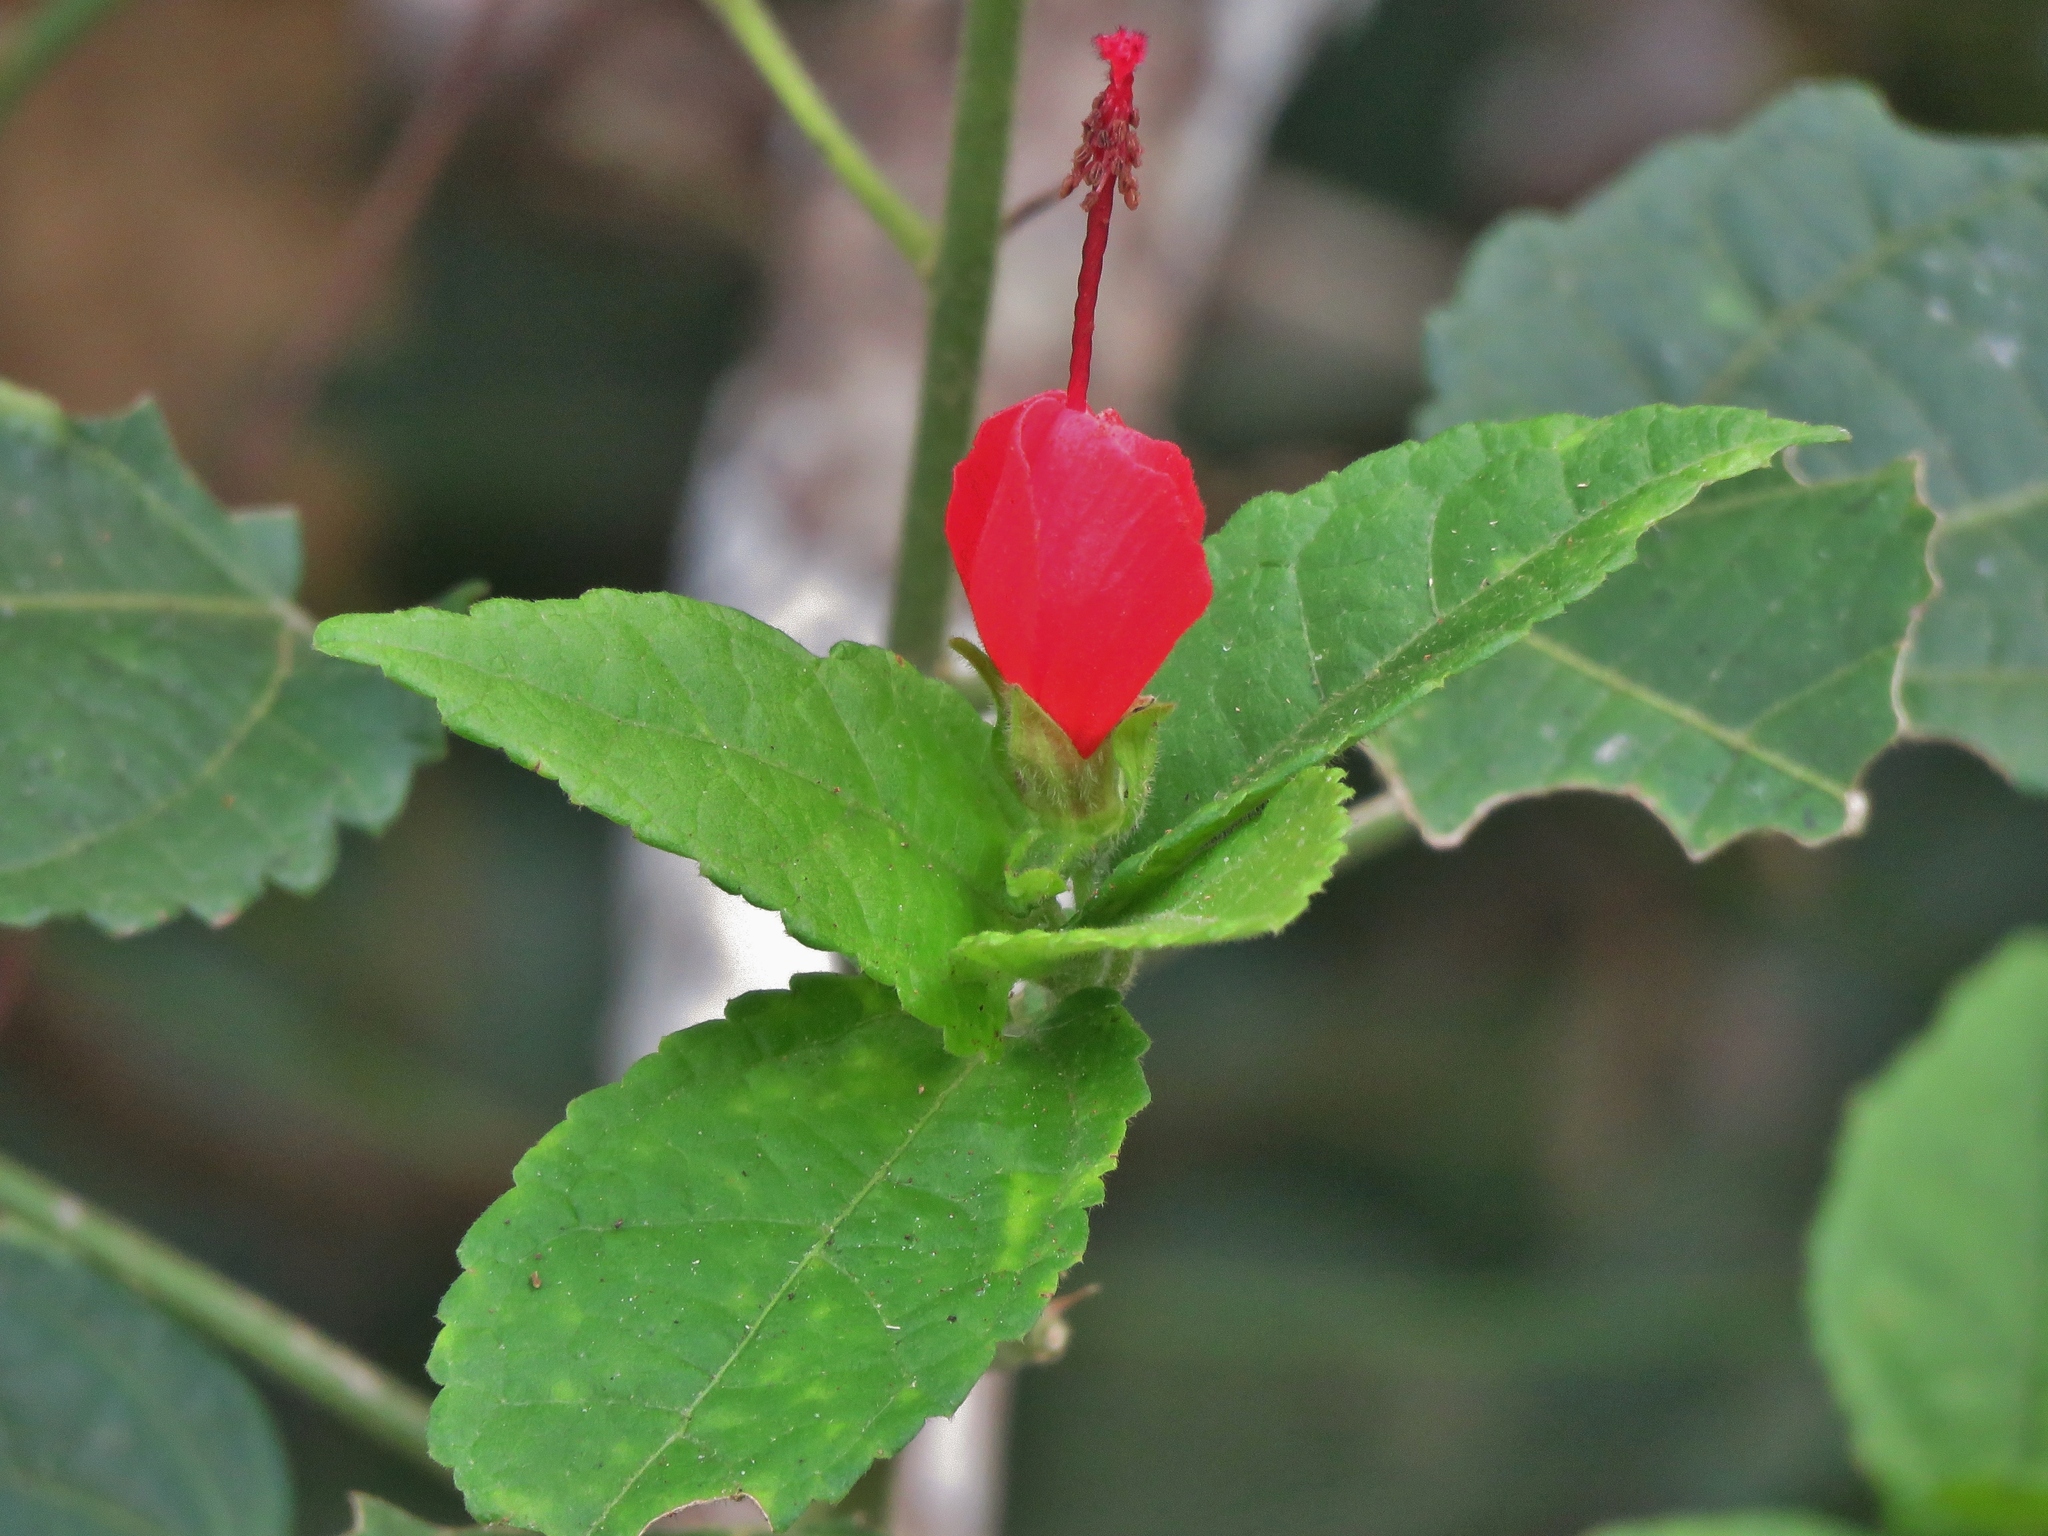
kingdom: Plantae
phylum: Tracheophyta
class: Magnoliopsida
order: Malvales
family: Malvaceae
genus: Malvaviscus
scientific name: Malvaviscus arboreus
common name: Wax mallow
